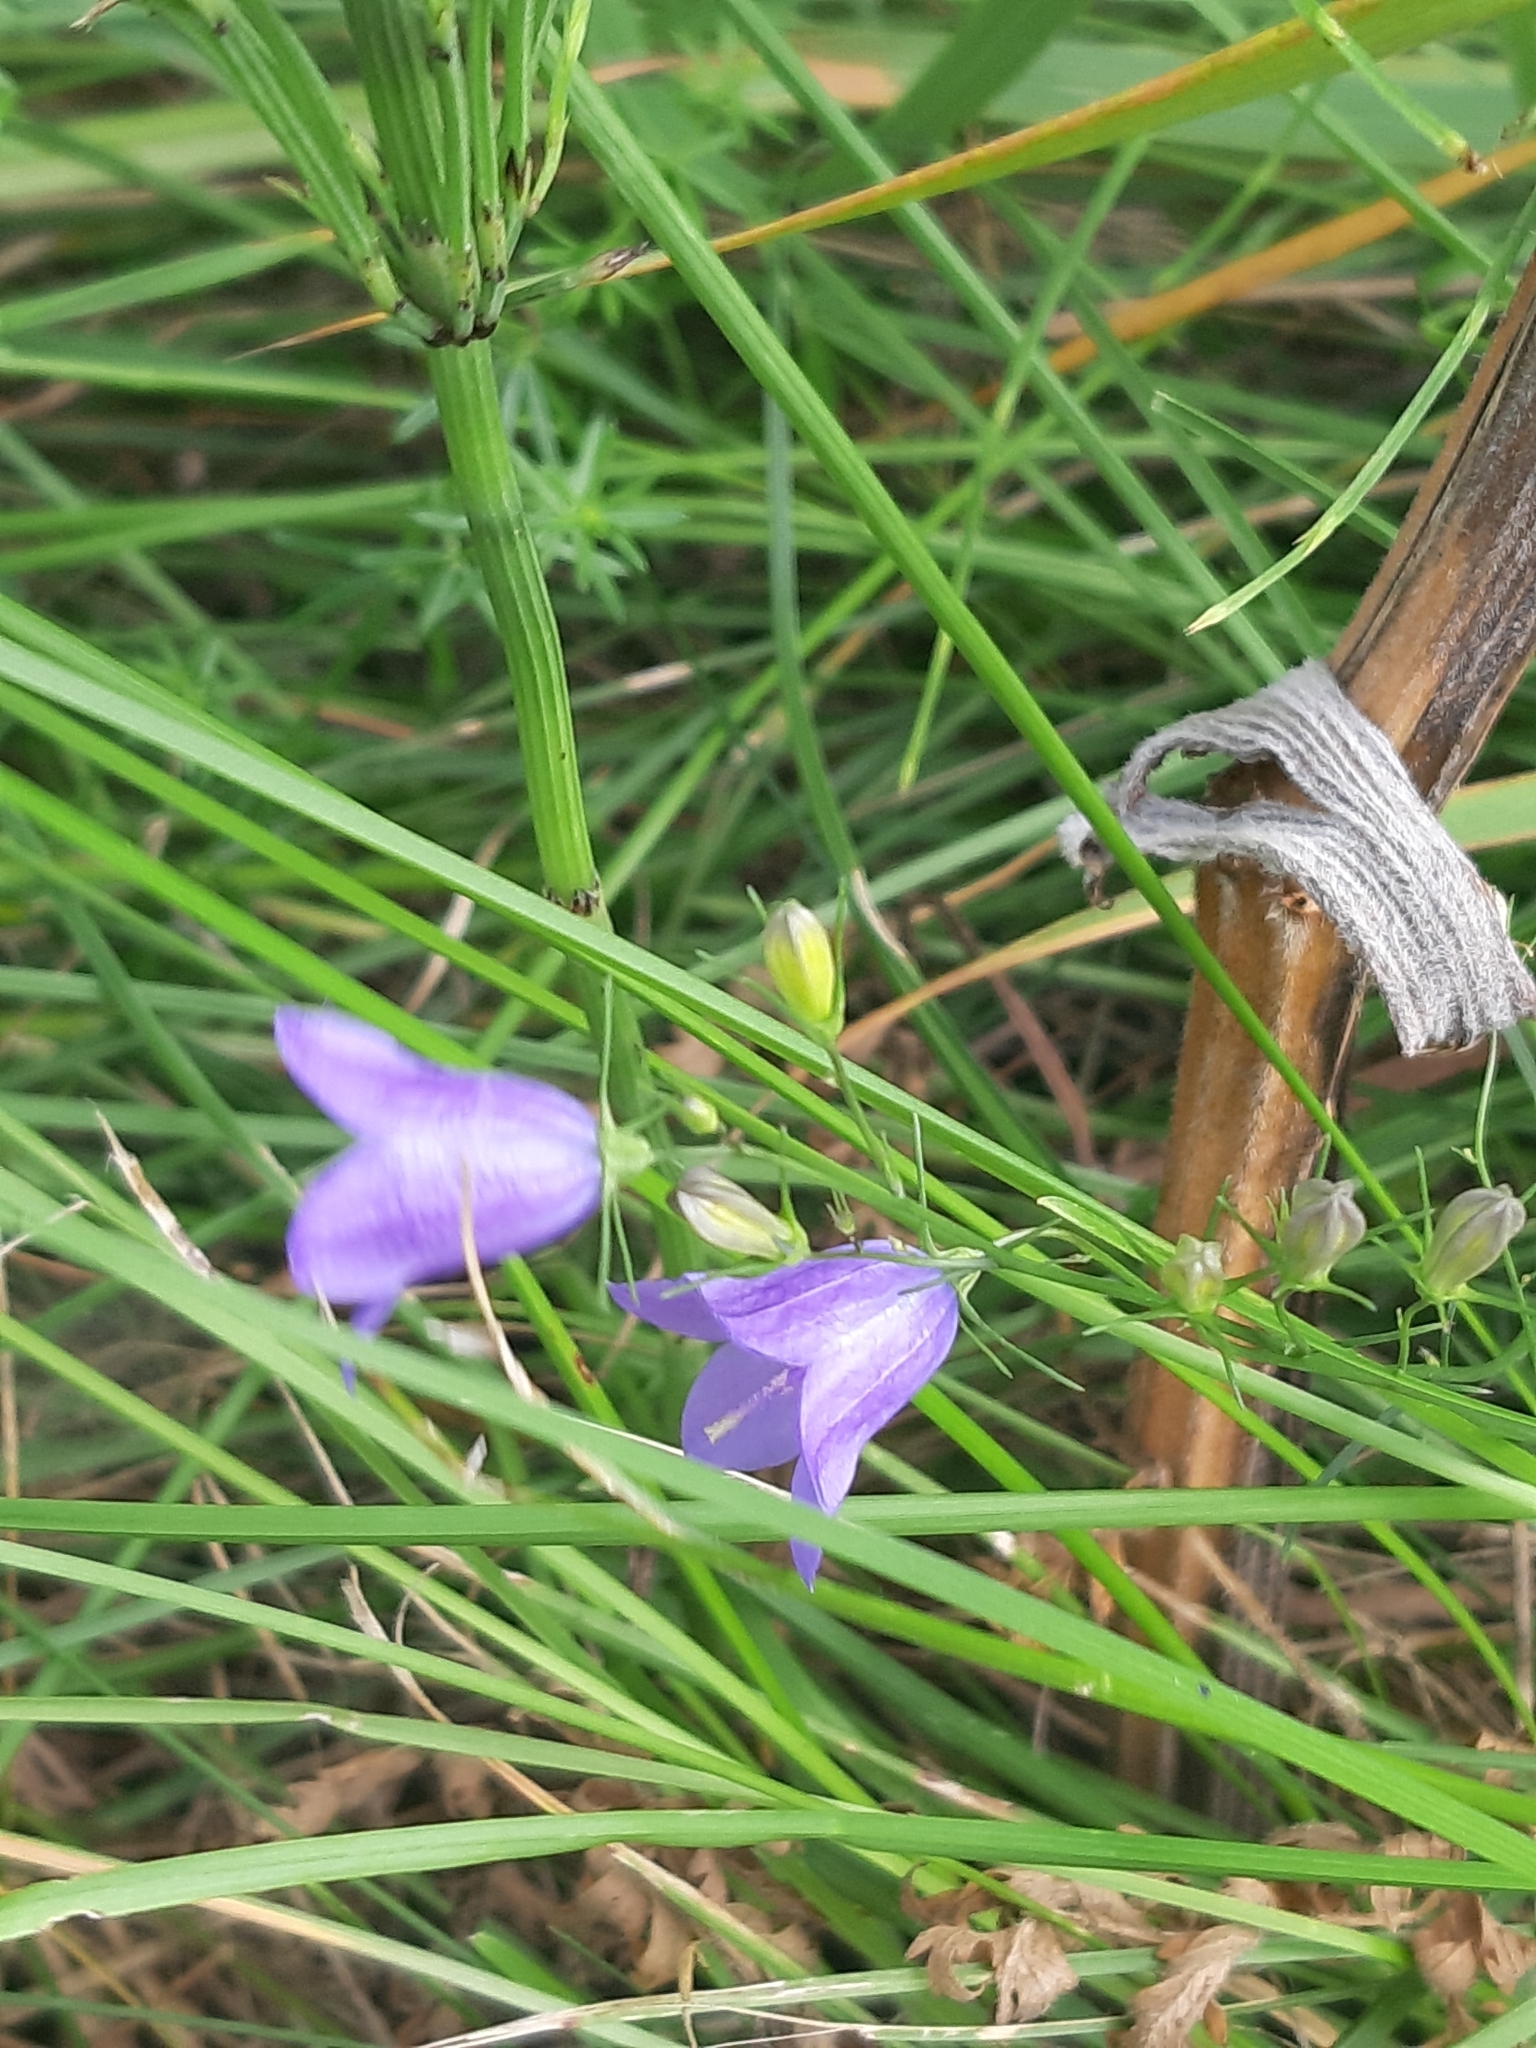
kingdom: Plantae
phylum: Tracheophyta
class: Magnoliopsida
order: Asterales
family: Campanulaceae
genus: Campanula
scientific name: Campanula rotundifolia
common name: Harebell
